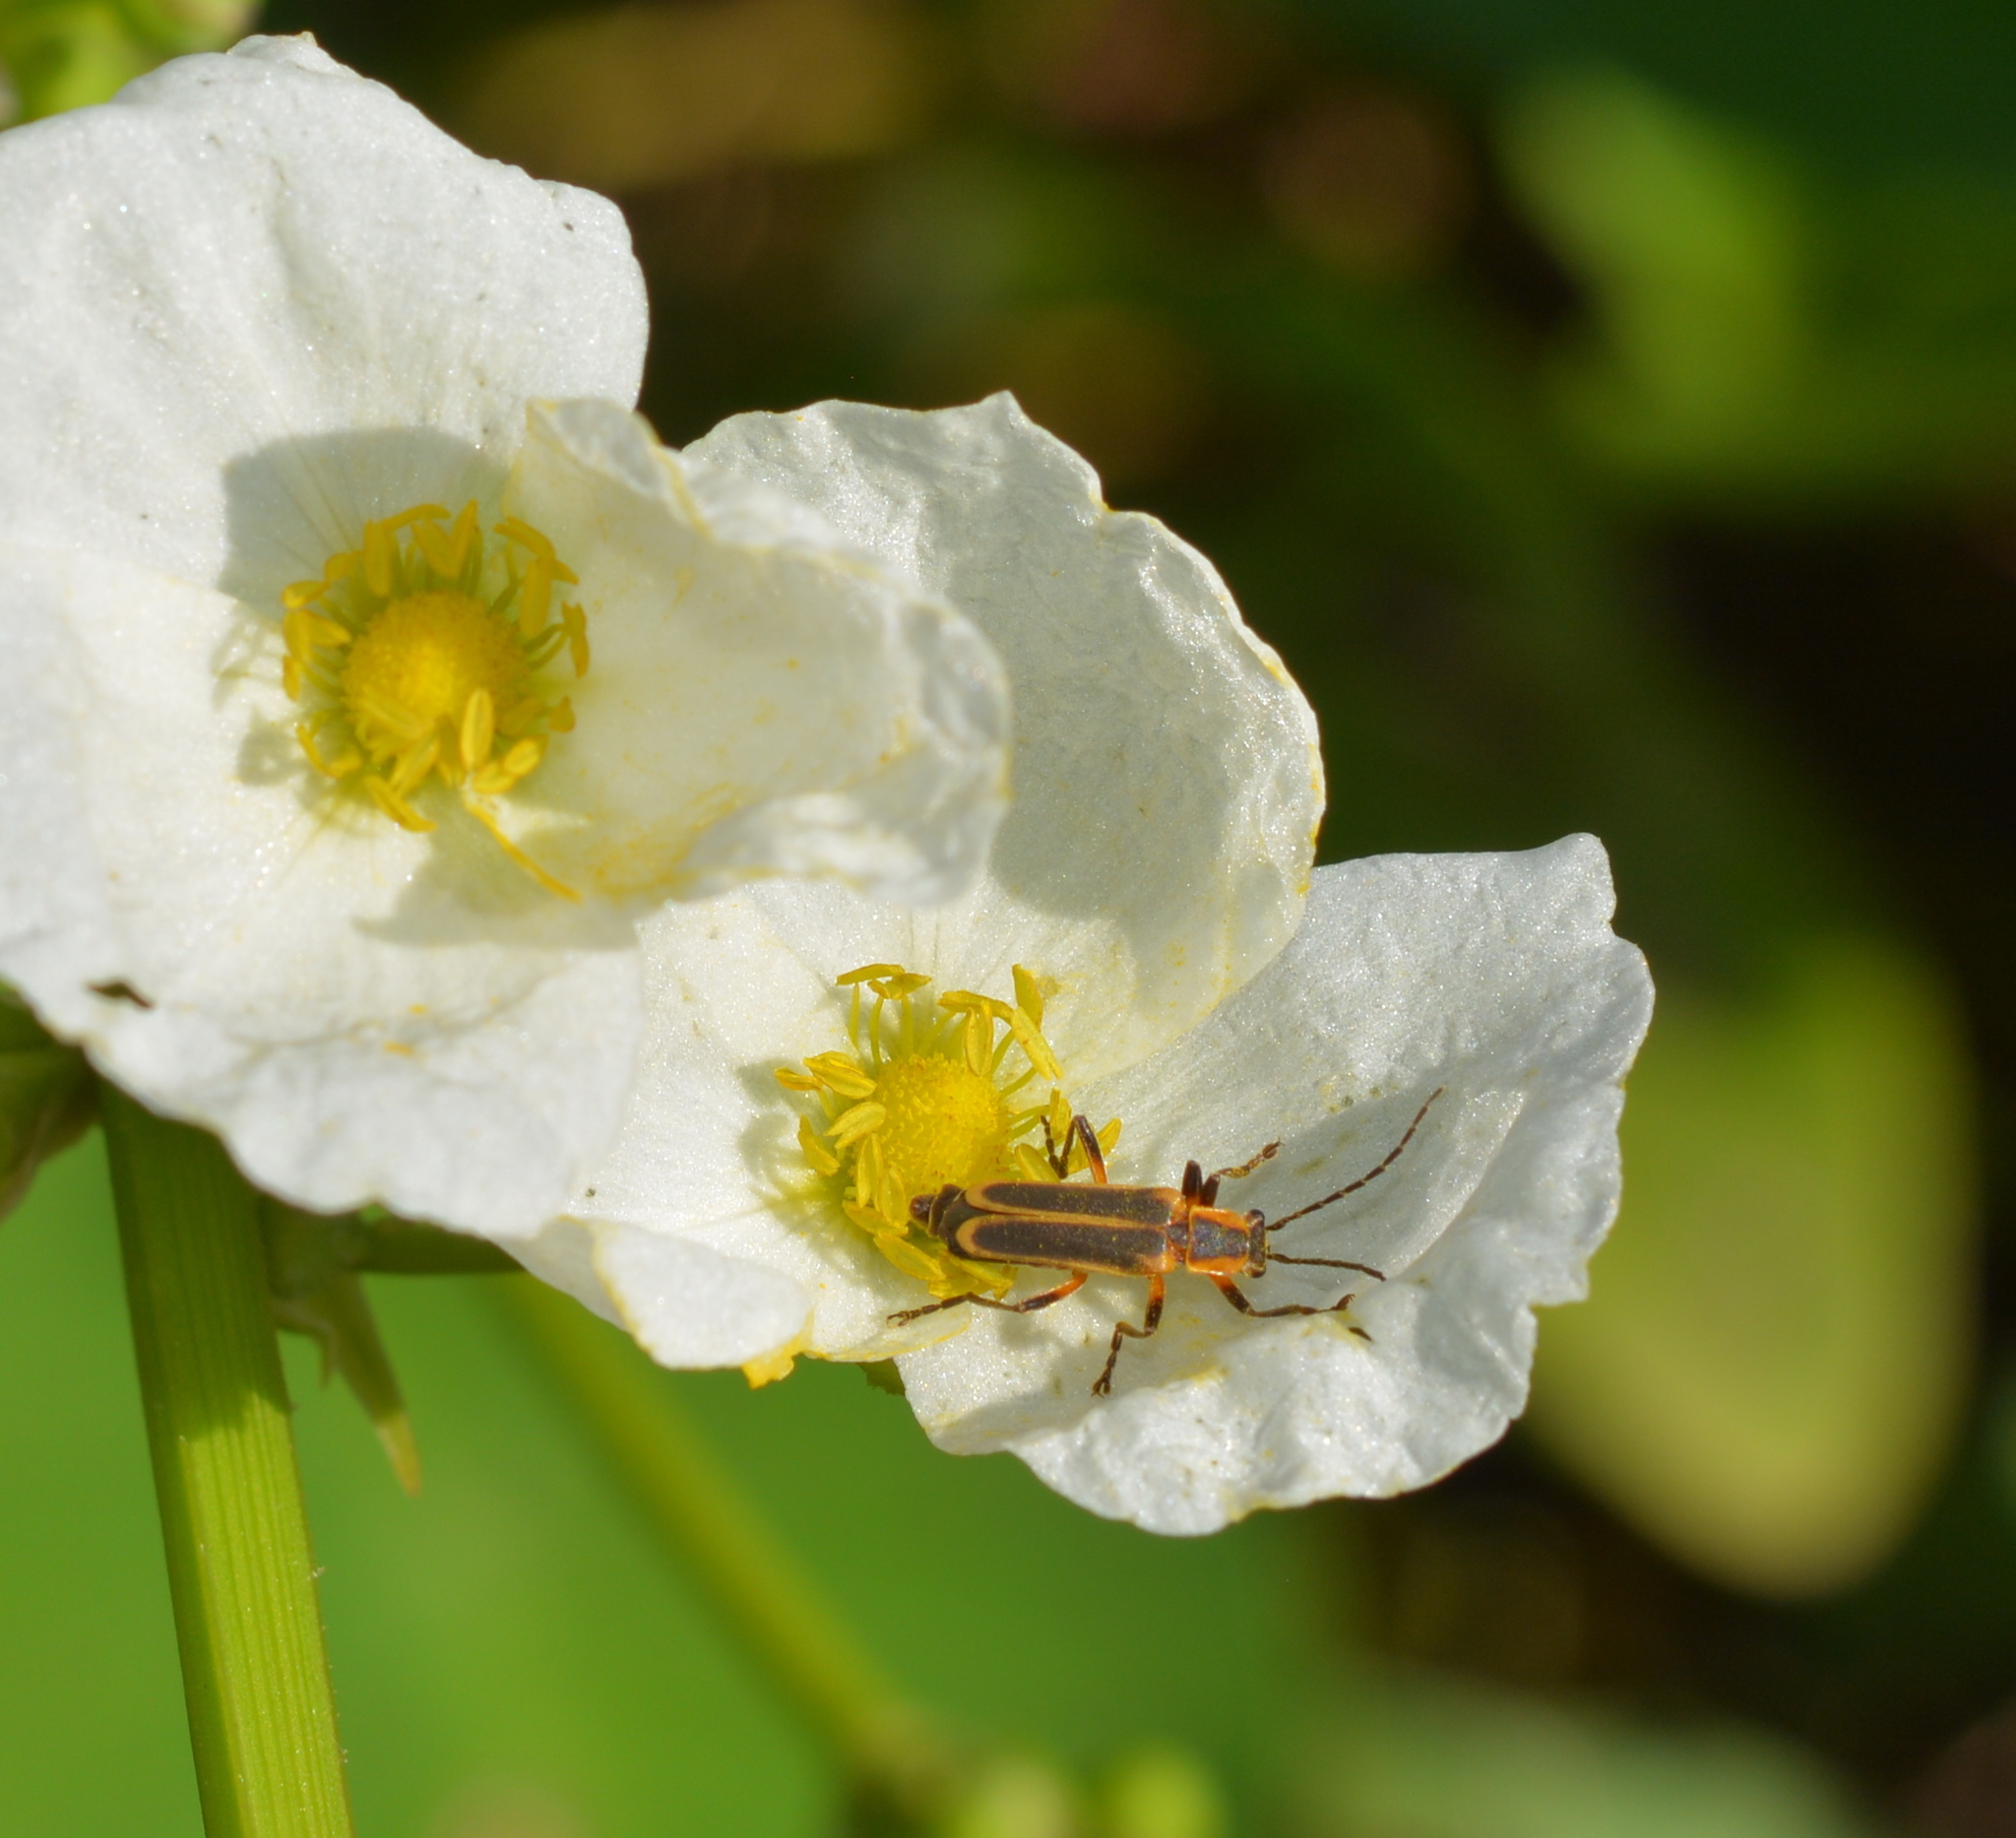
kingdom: Animalia
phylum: Arthropoda
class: Insecta
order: Coleoptera
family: Cantharidae
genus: Chauliognathus
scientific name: Chauliognathus marginatus
